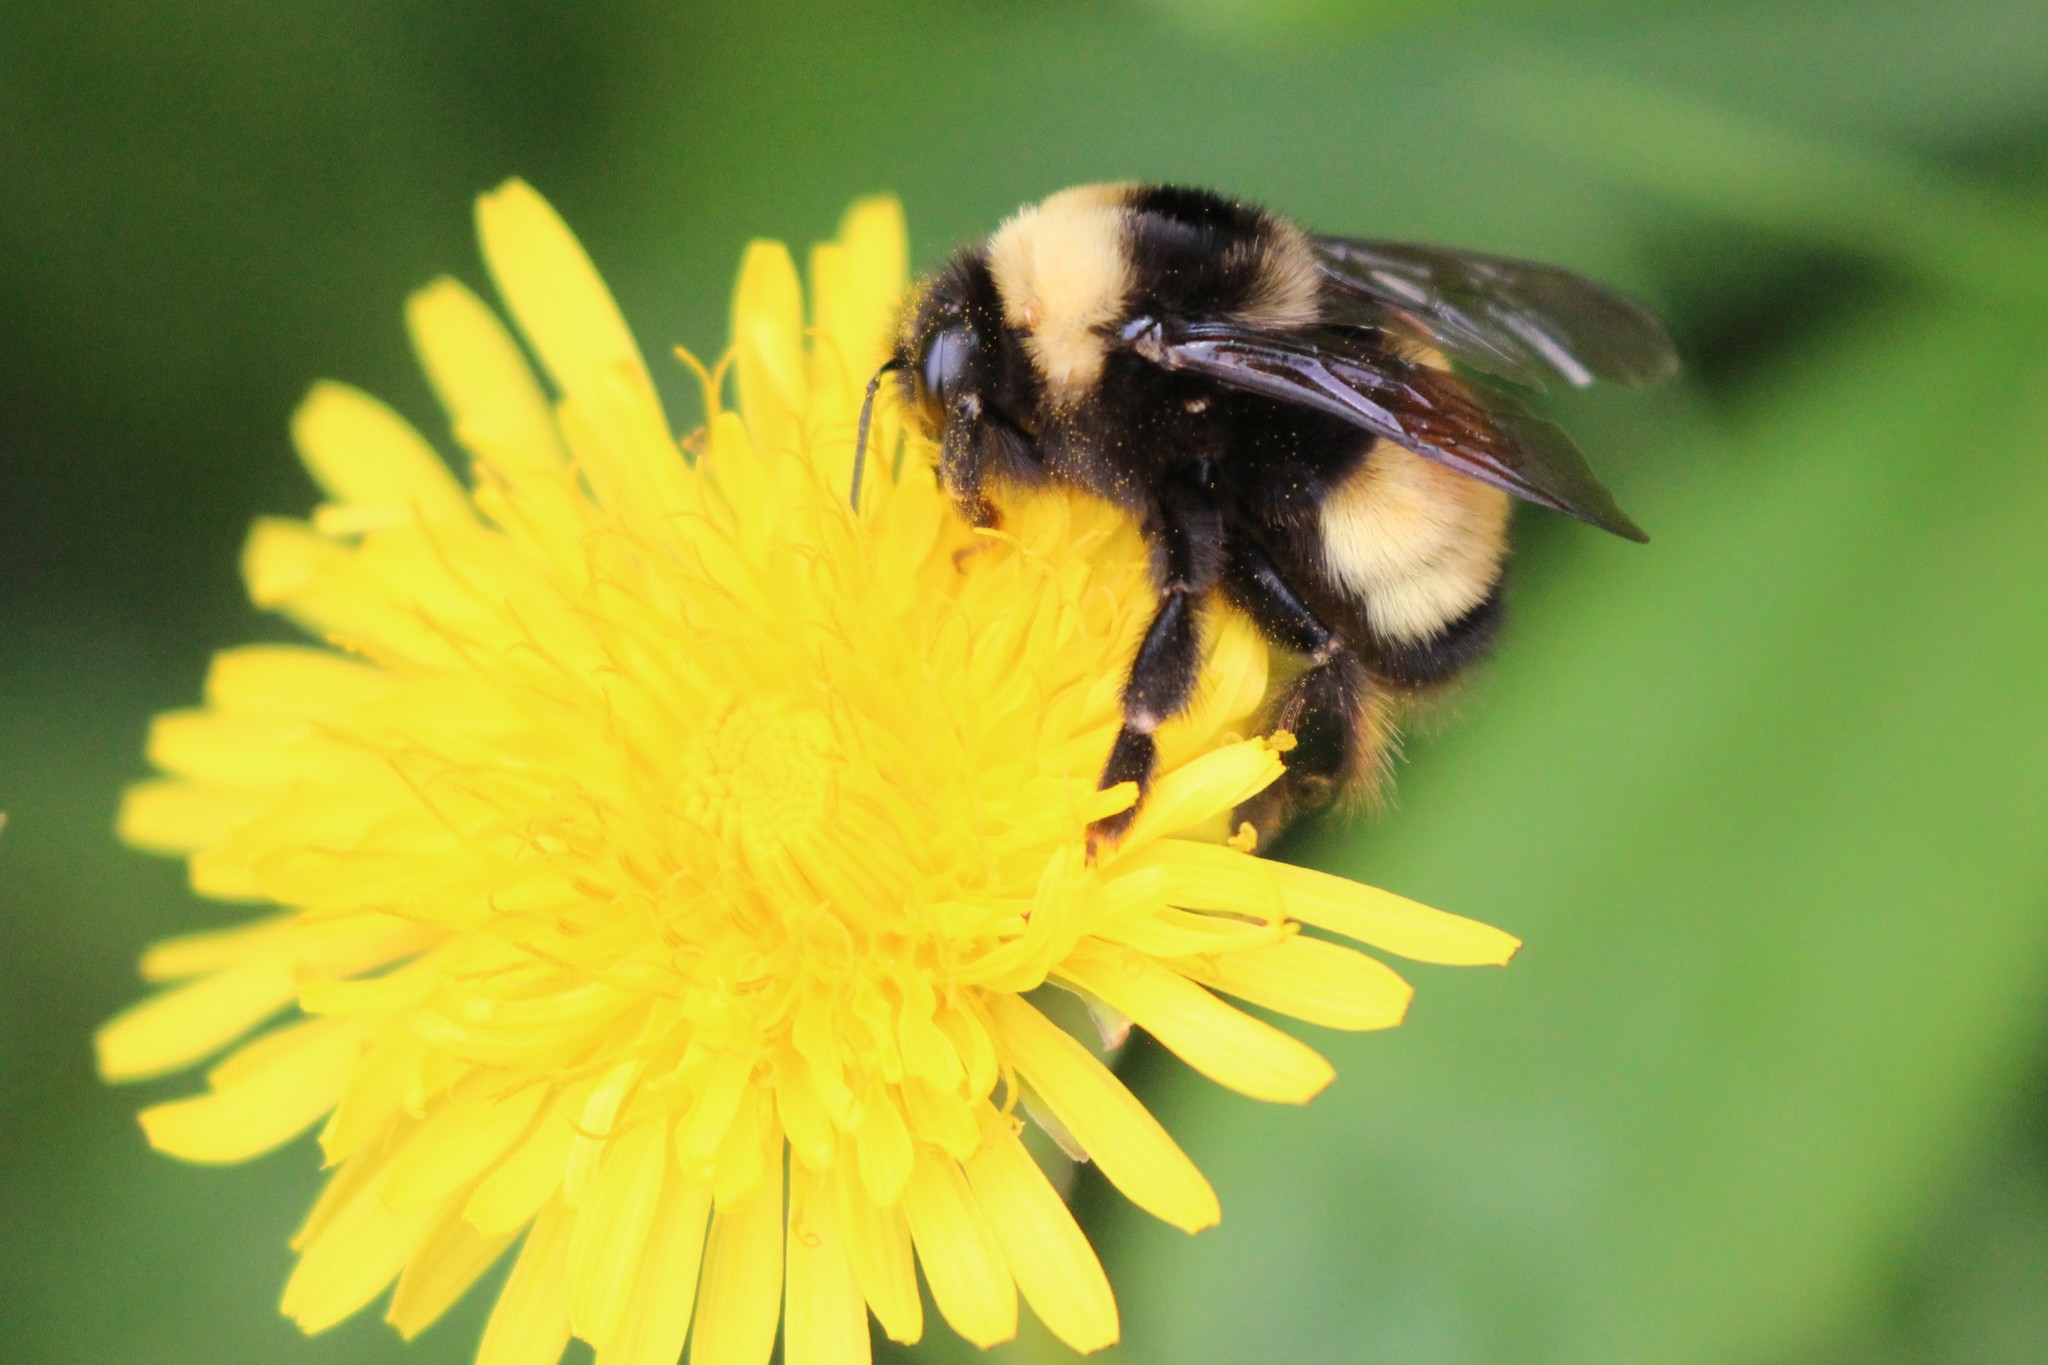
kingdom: Animalia
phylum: Arthropoda
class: Insecta
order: Hymenoptera
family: Apidae
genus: Bombus
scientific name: Bombus terricola
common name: Yellow-banded bumble bee
